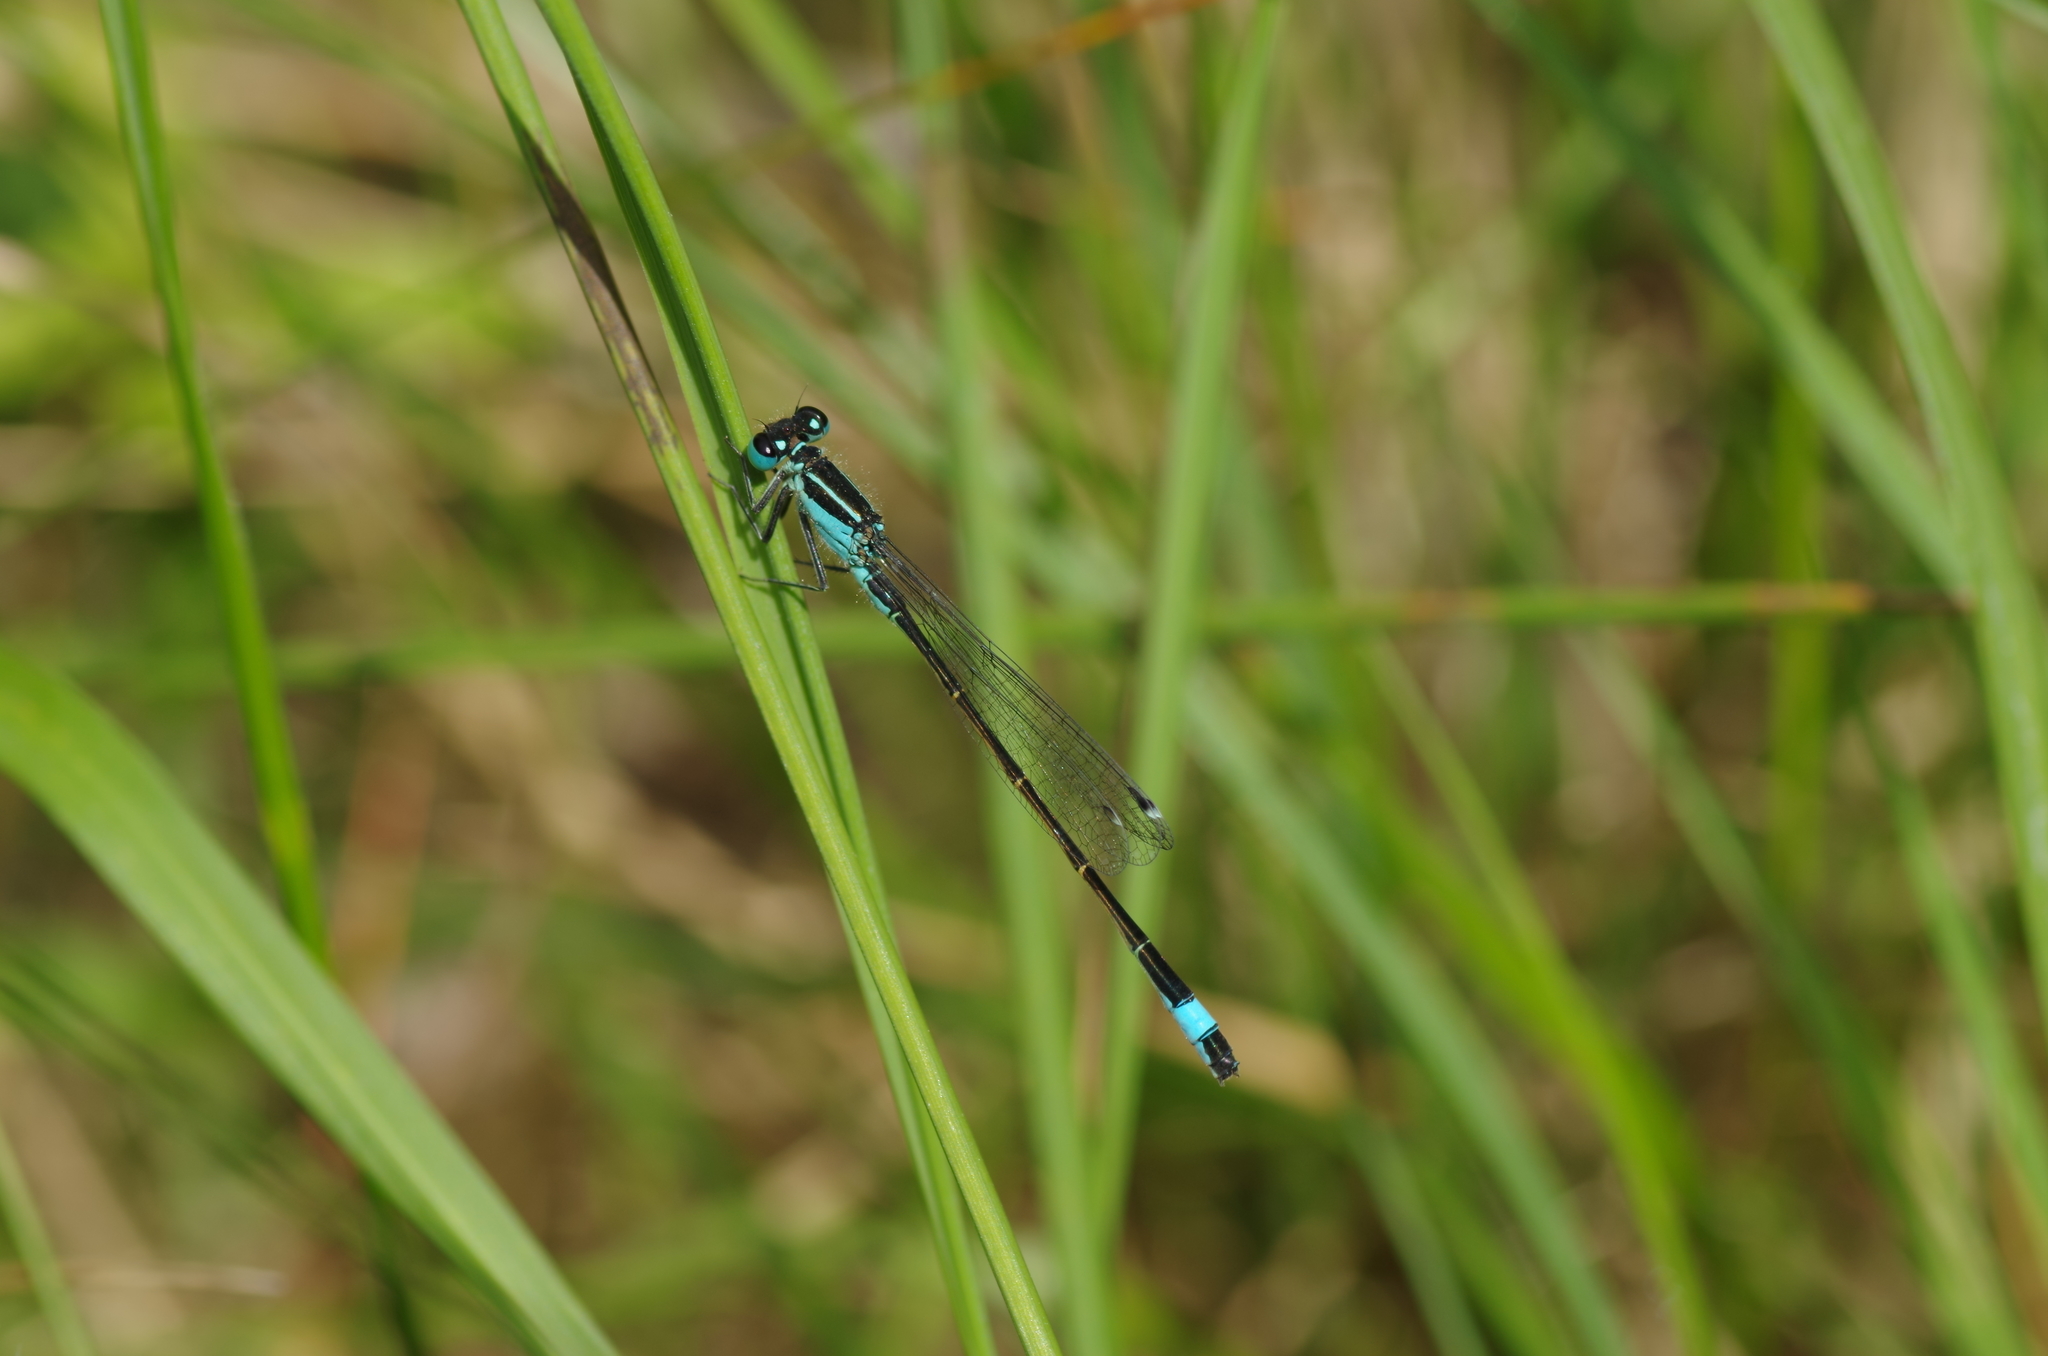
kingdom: Animalia
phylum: Arthropoda
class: Insecta
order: Odonata
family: Coenagrionidae
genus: Ischnura
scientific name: Ischnura elegans
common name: Blue-tailed damselfly
